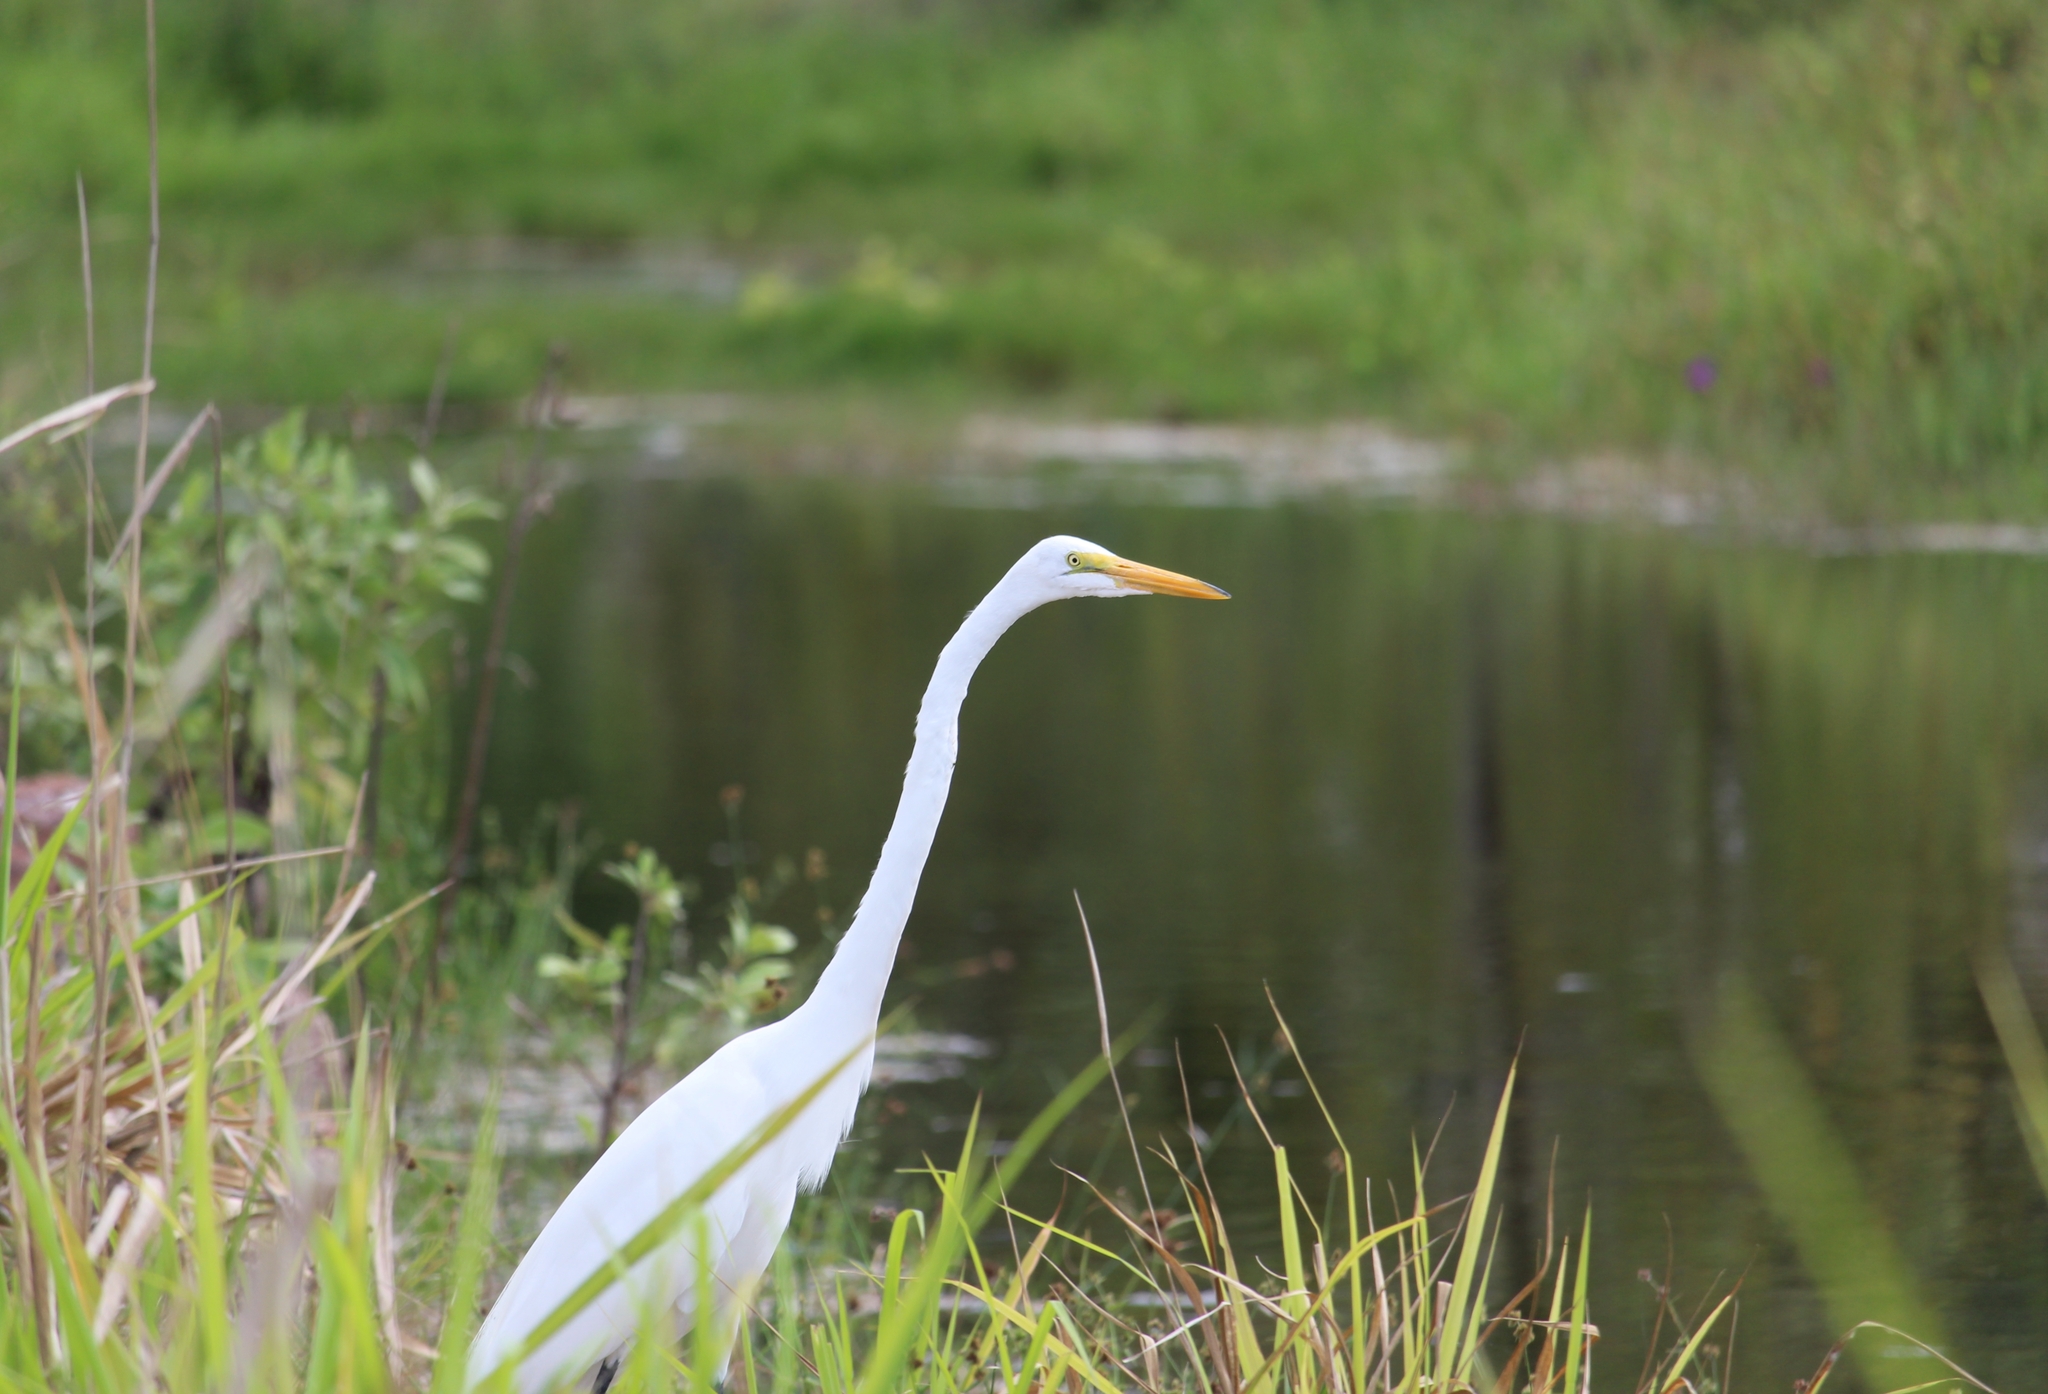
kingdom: Animalia
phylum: Chordata
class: Aves
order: Pelecaniformes
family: Ardeidae
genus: Ardea
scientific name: Ardea alba
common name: Great egret
